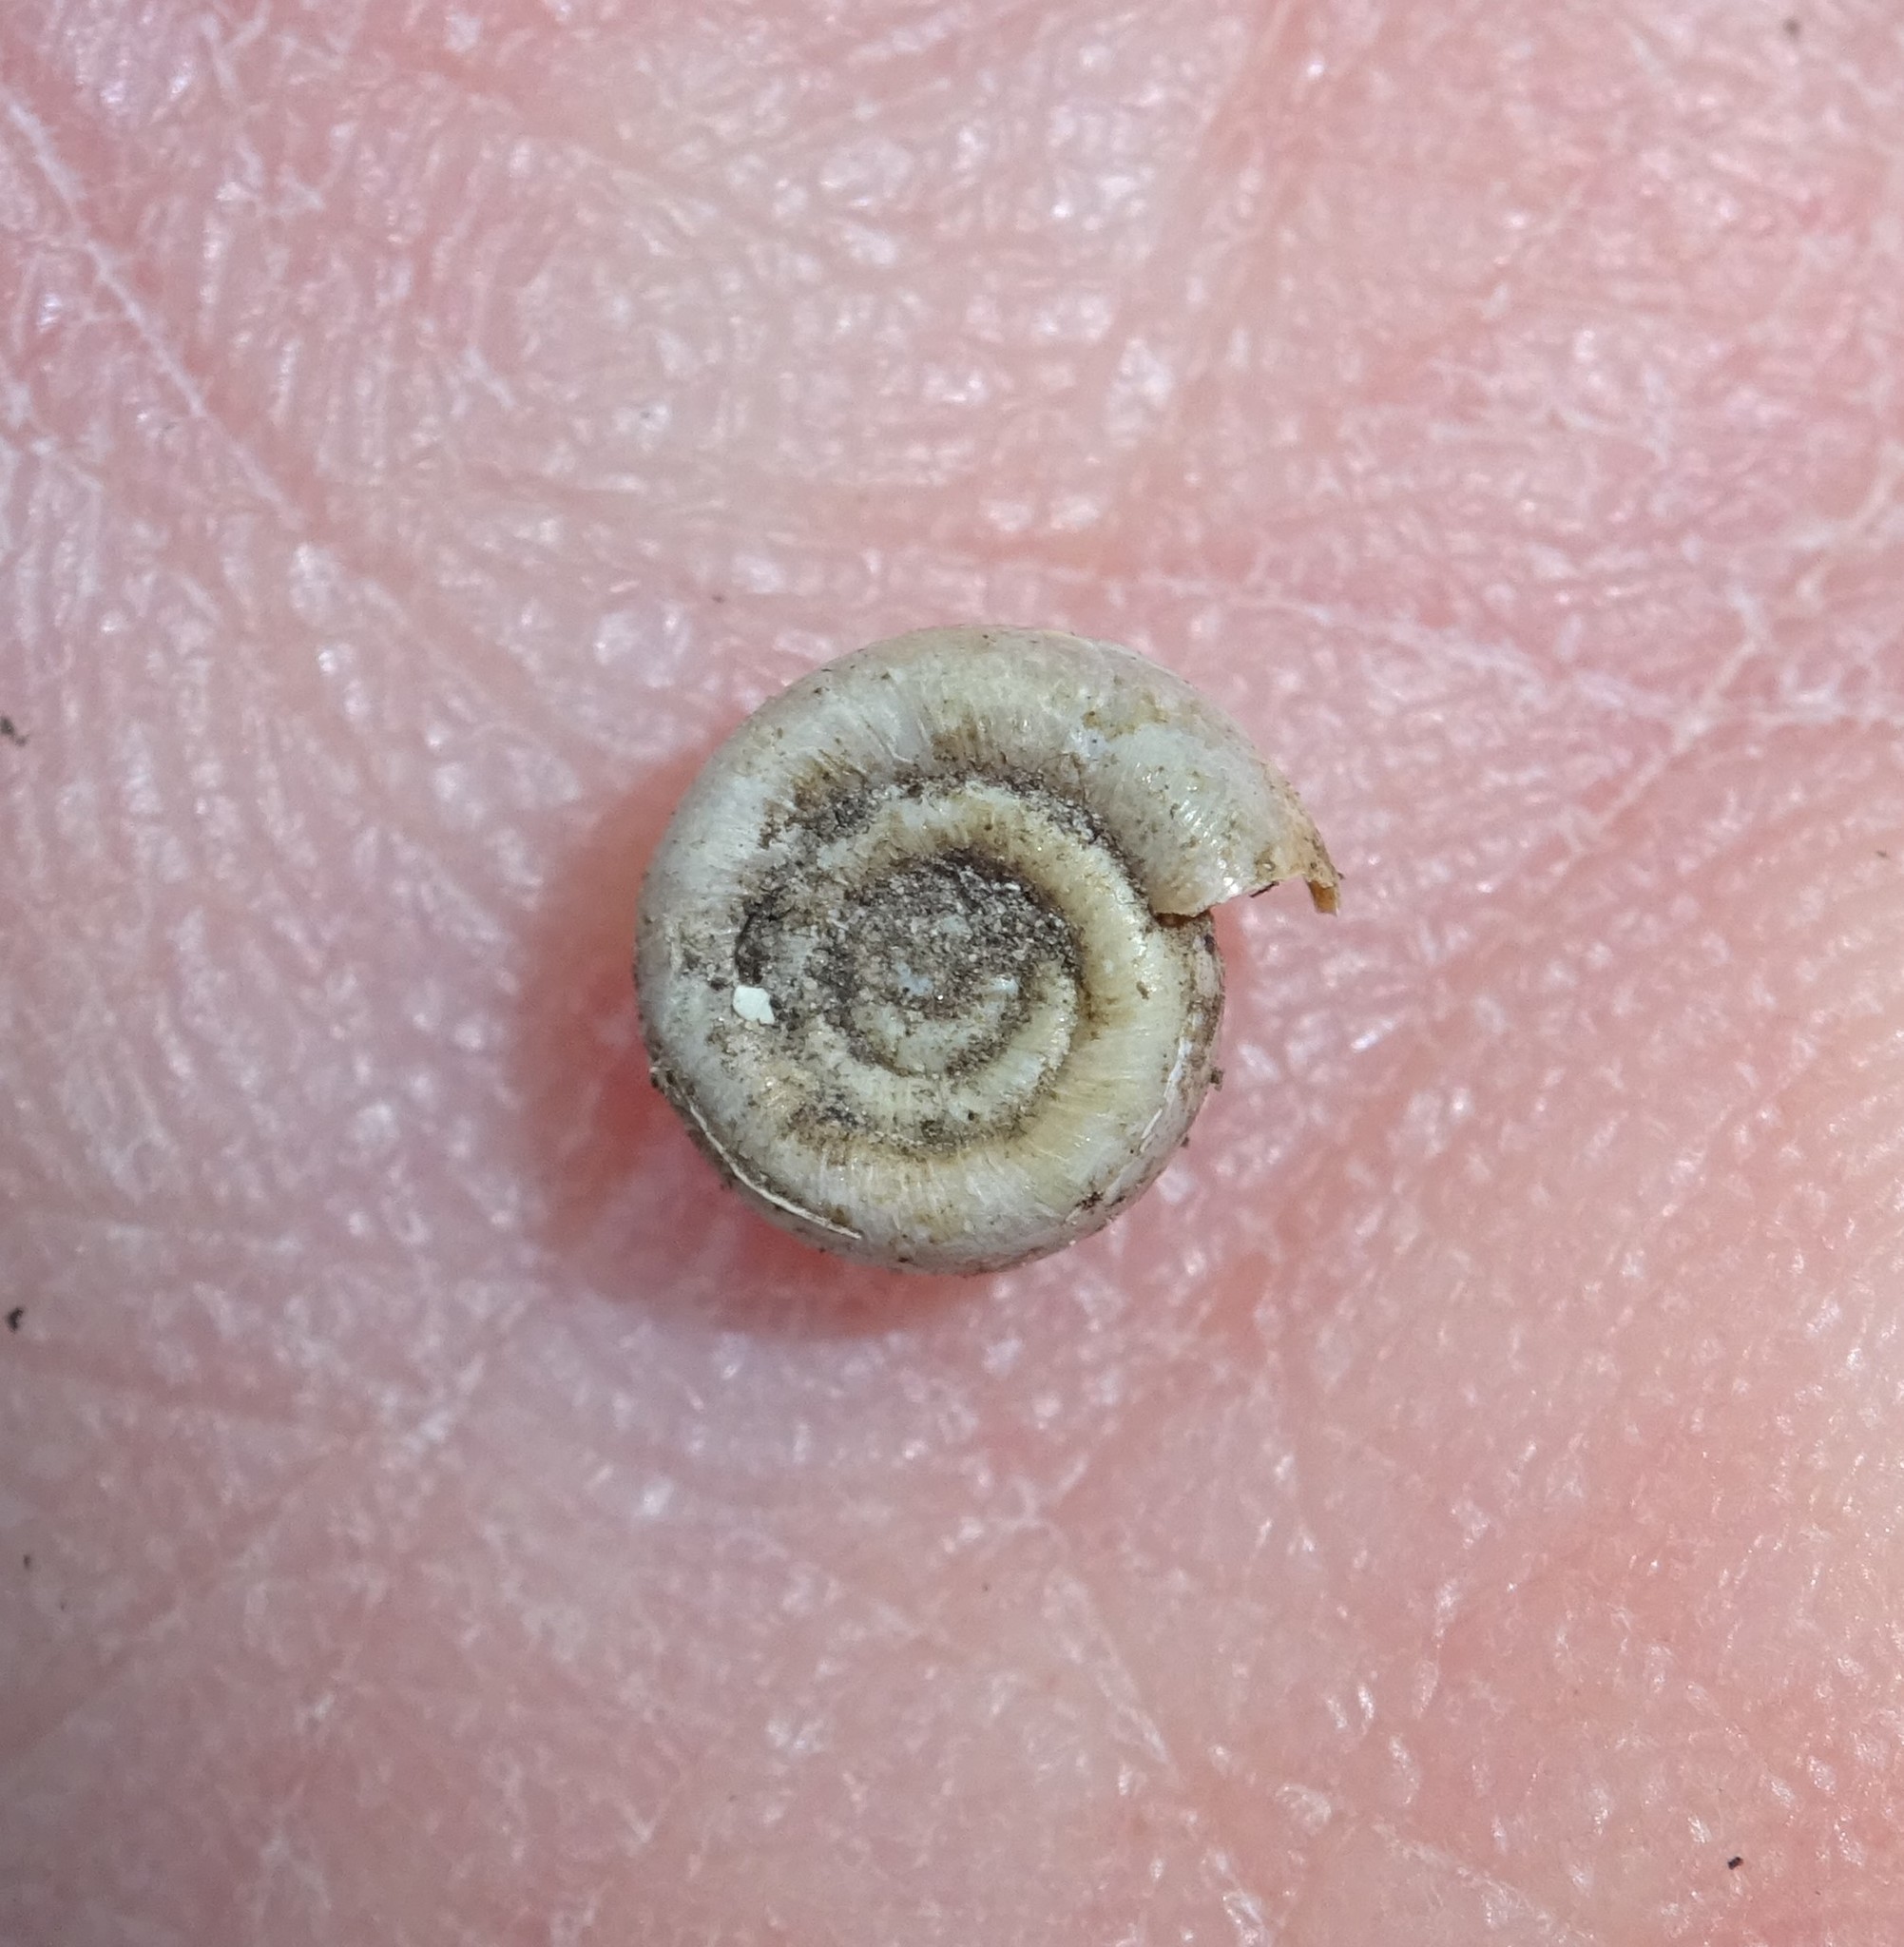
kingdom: Animalia
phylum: Mollusca
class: Gastropoda
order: Stylommatophora
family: Helicodontidae
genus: Helicodonta
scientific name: Helicodonta obvoluta
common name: Cheese snail
